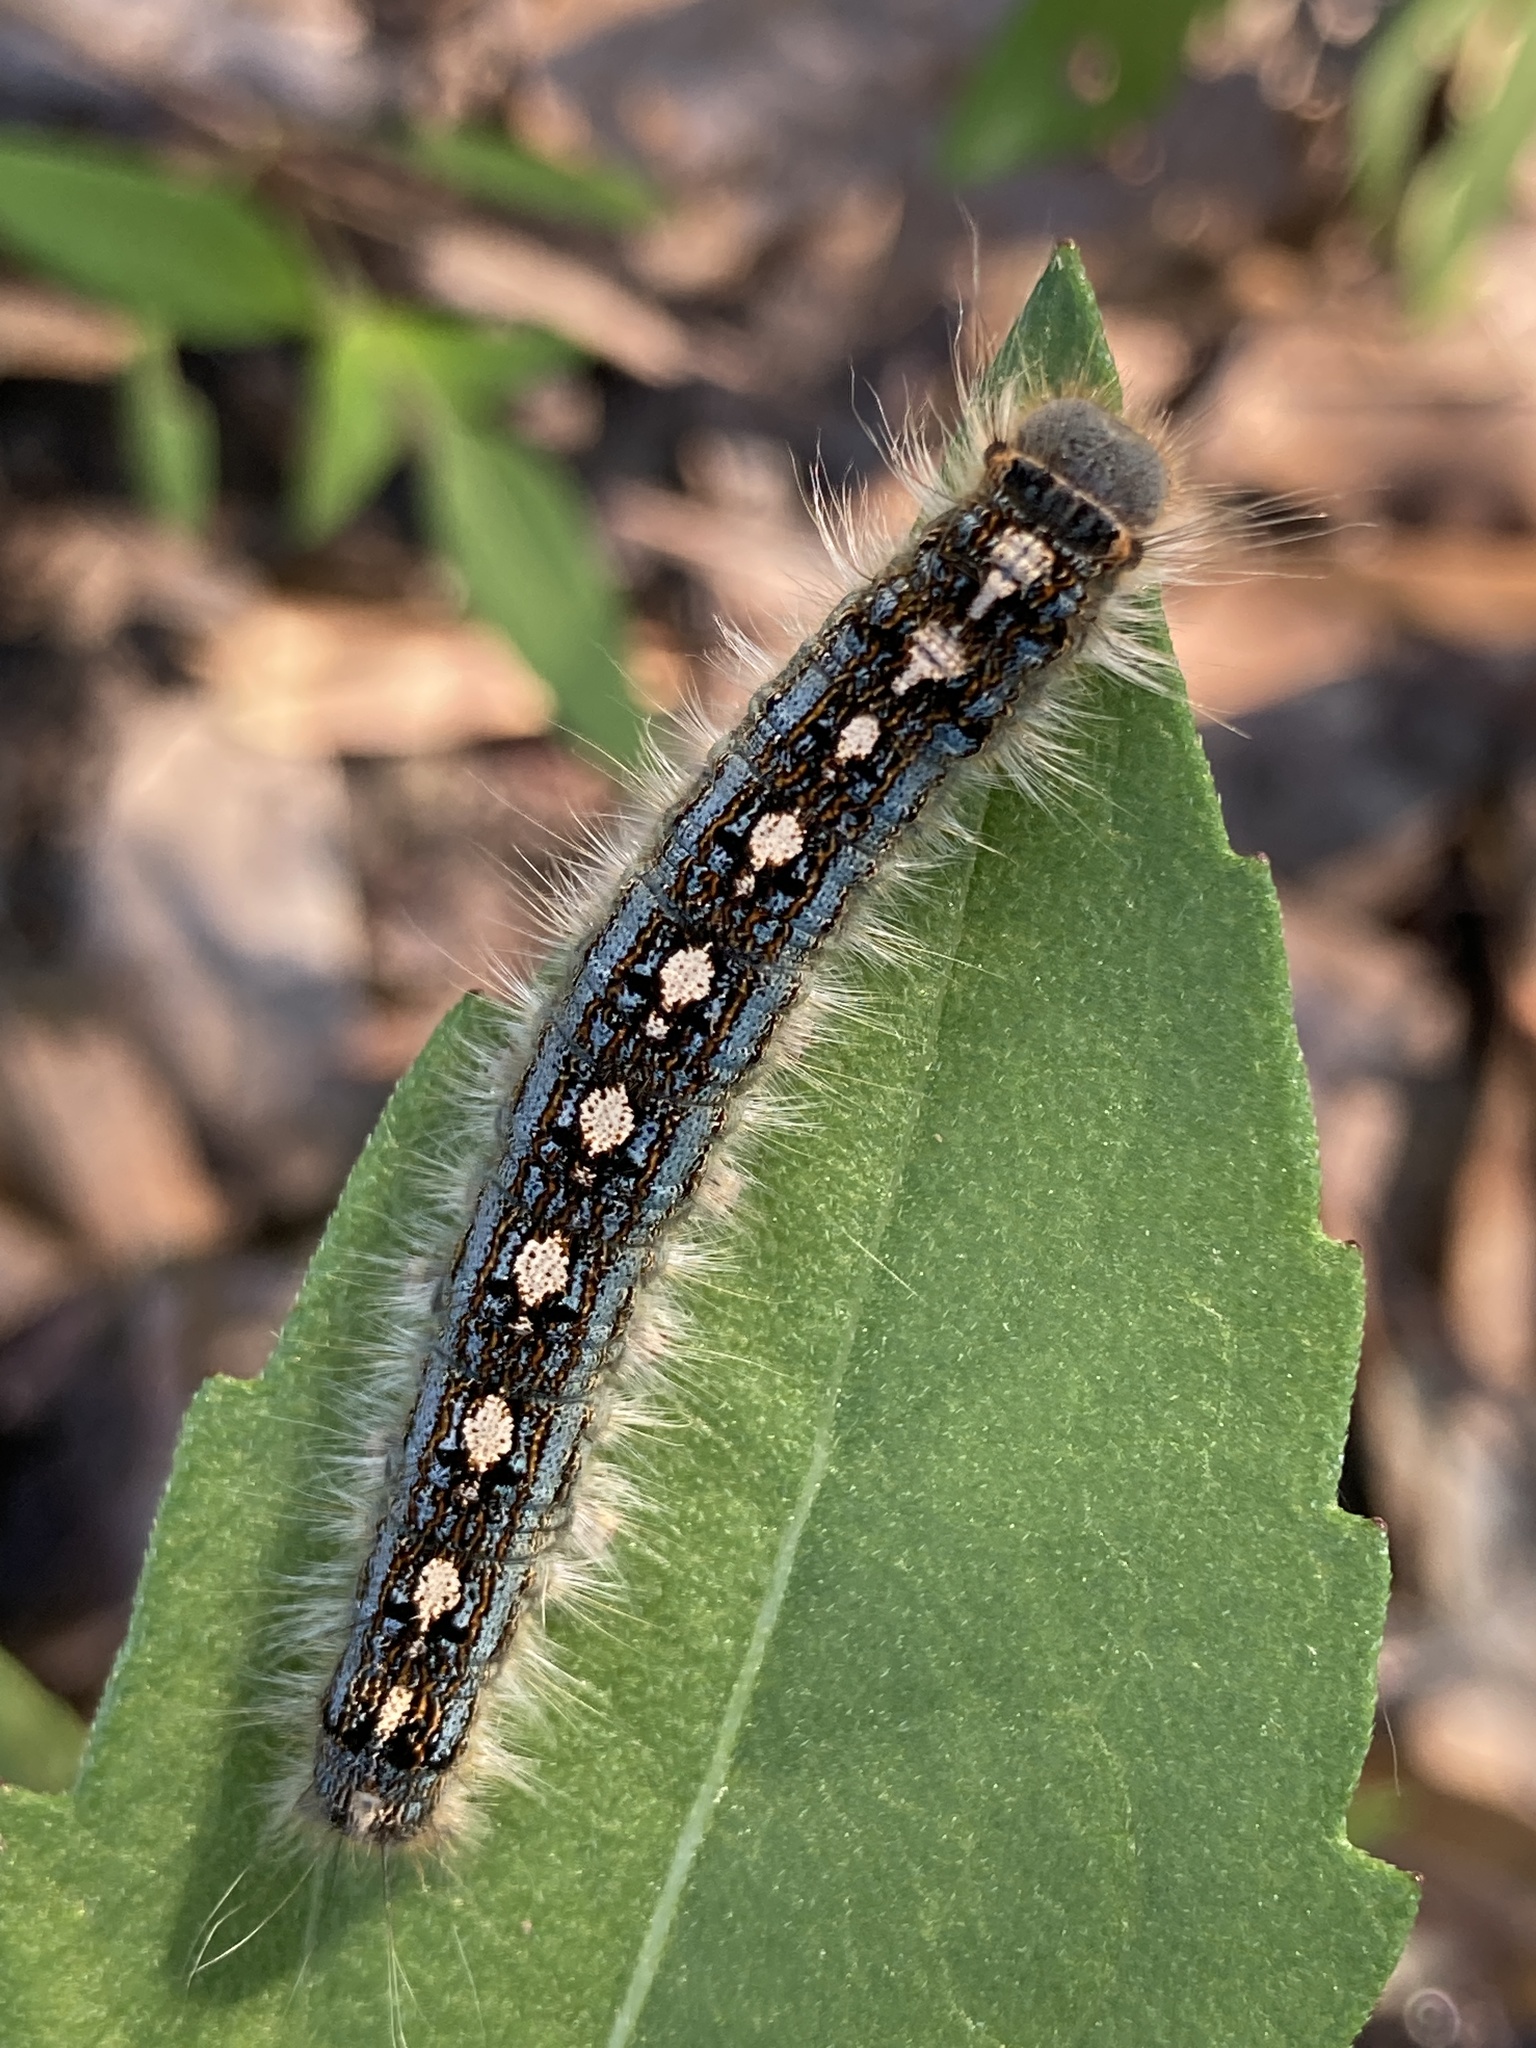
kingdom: Animalia
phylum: Arthropoda
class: Insecta
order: Lepidoptera
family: Lasiocampidae
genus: Malacosoma
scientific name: Malacosoma disstria
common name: Forest tent caterpillar
